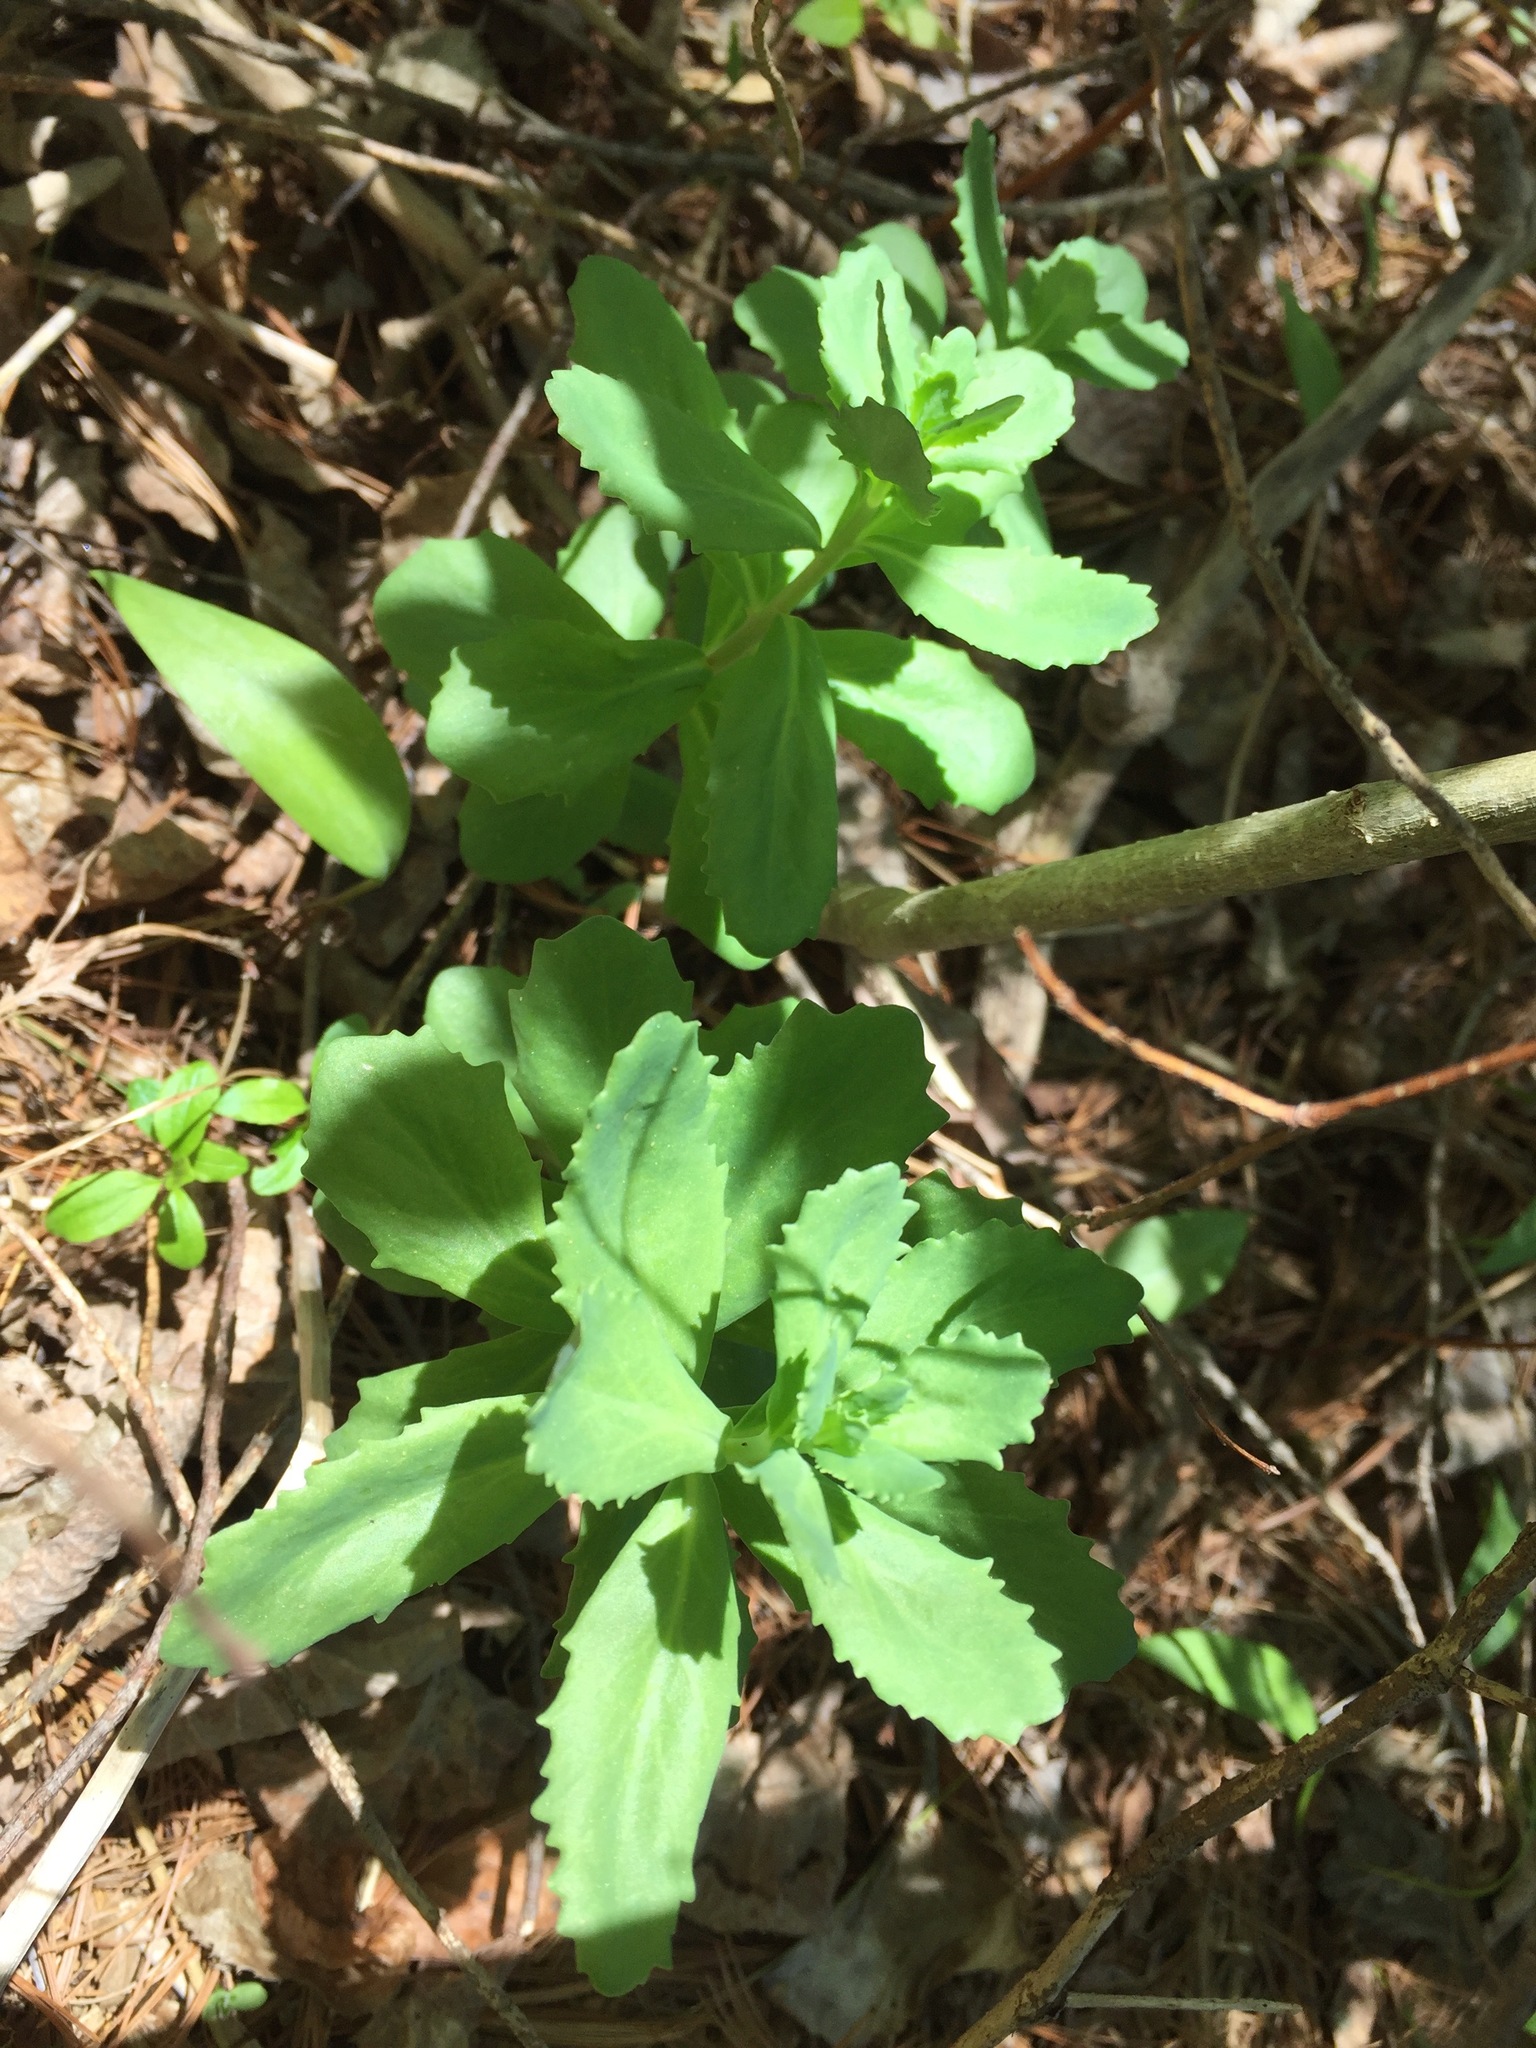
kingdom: Plantae
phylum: Tracheophyta
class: Magnoliopsida
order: Saxifragales
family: Crassulaceae
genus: Hylotelephium
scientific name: Hylotelephium telephium
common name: Live-forever
